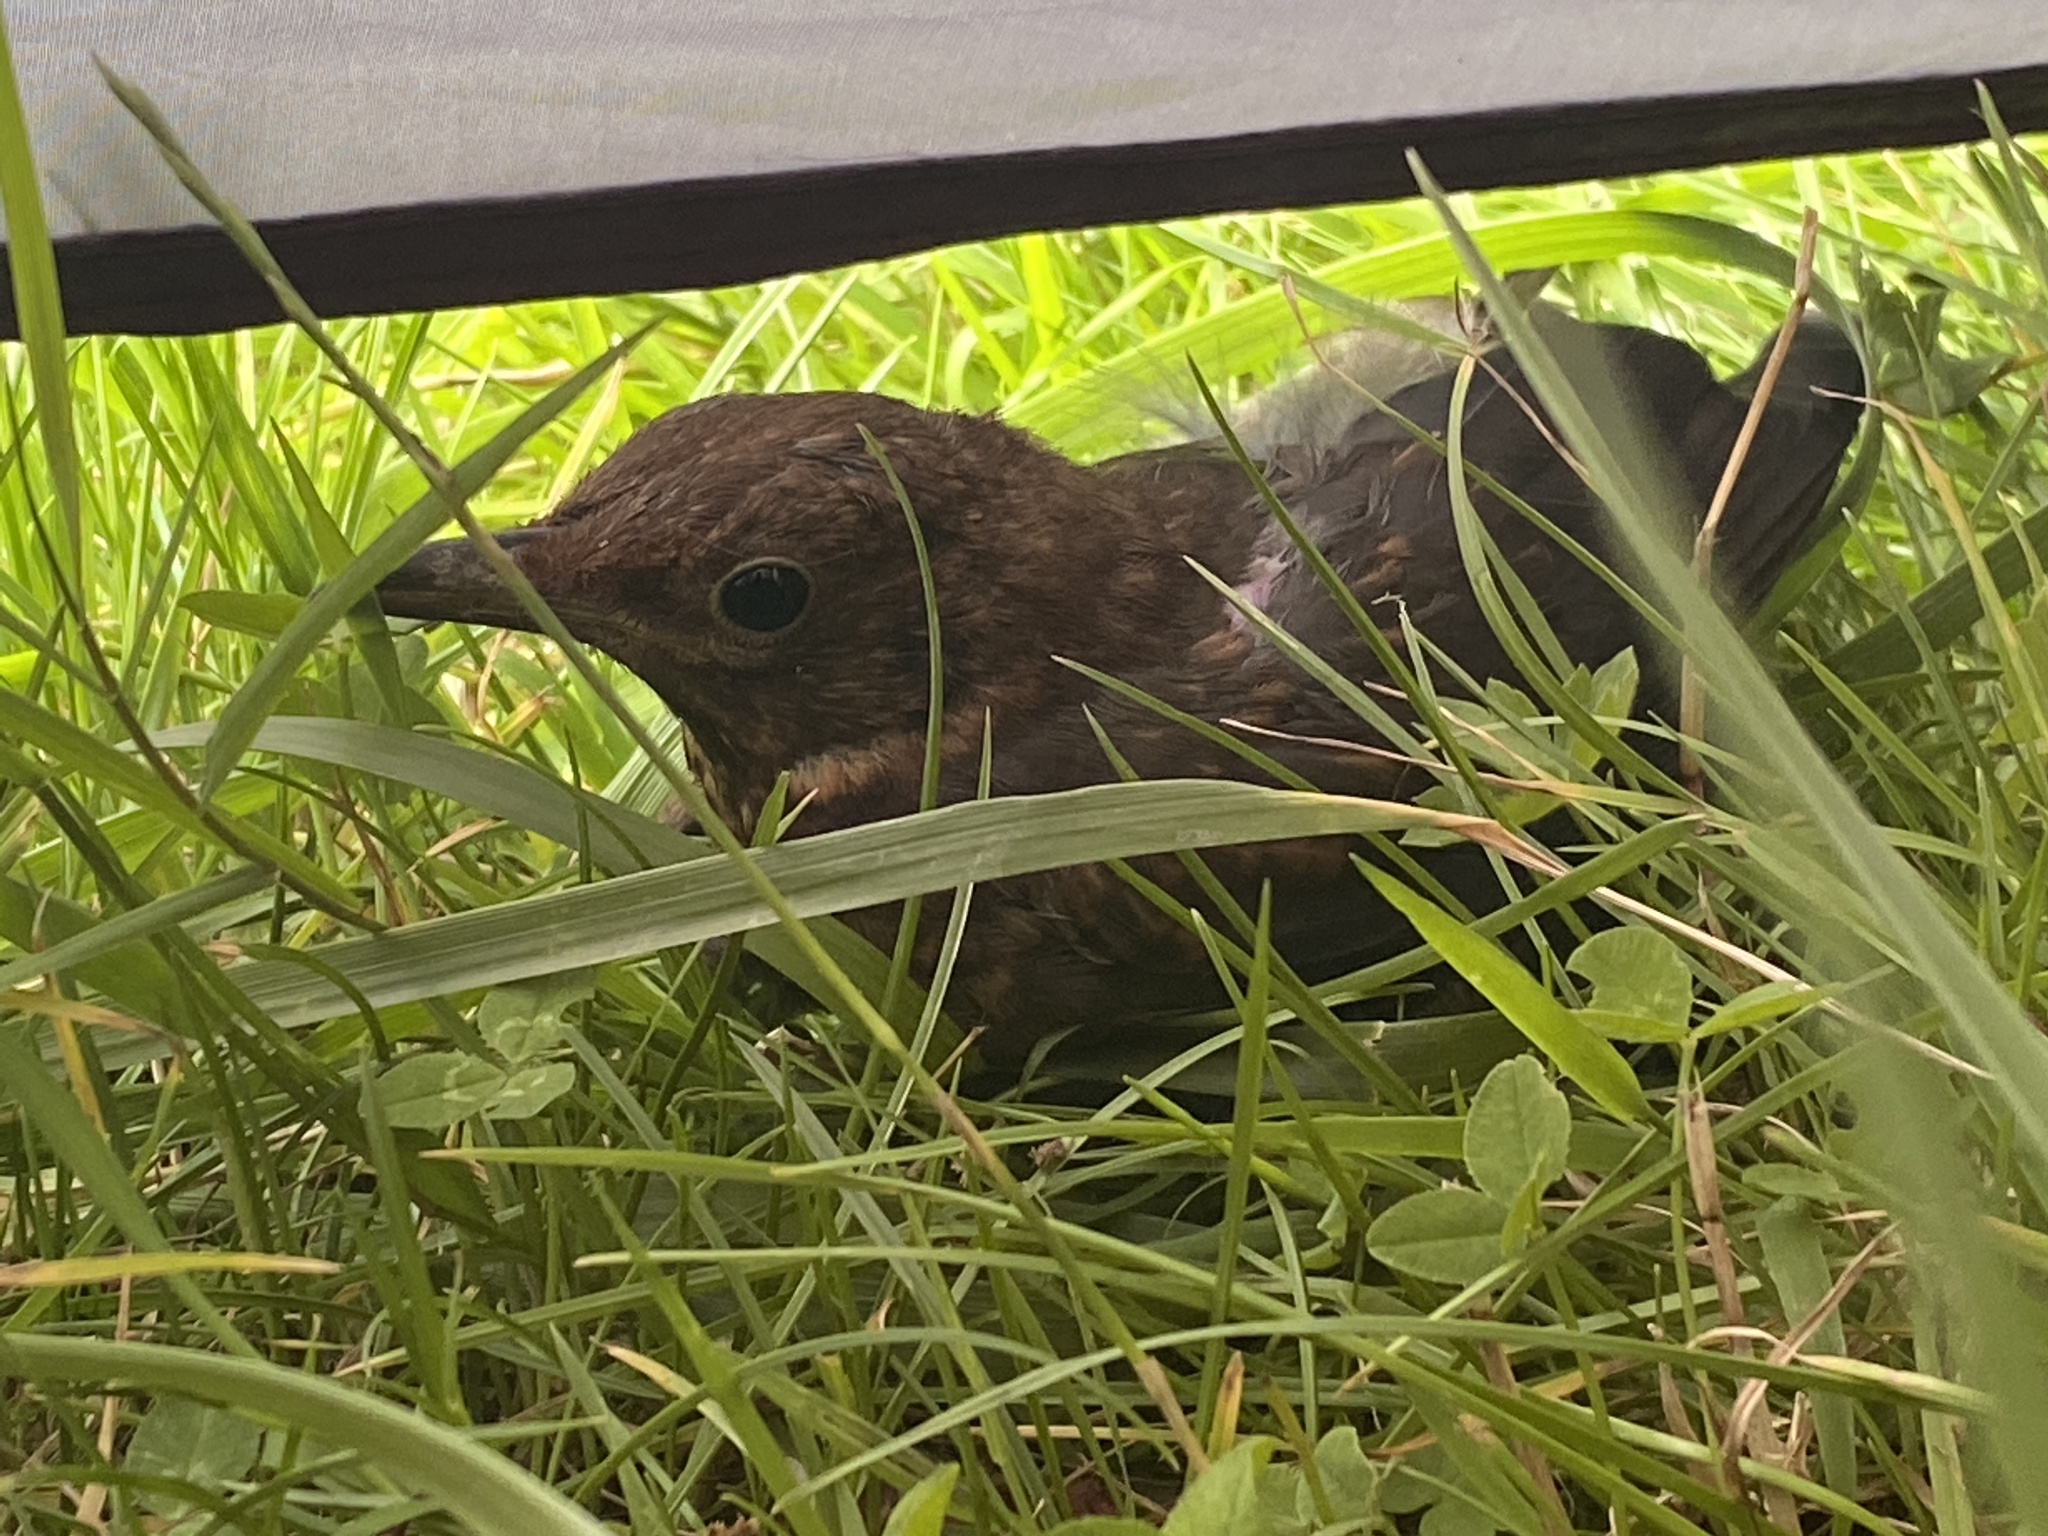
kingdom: Animalia
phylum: Chordata
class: Aves
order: Passeriformes
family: Turdidae
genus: Turdus
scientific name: Turdus merula
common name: Common blackbird
